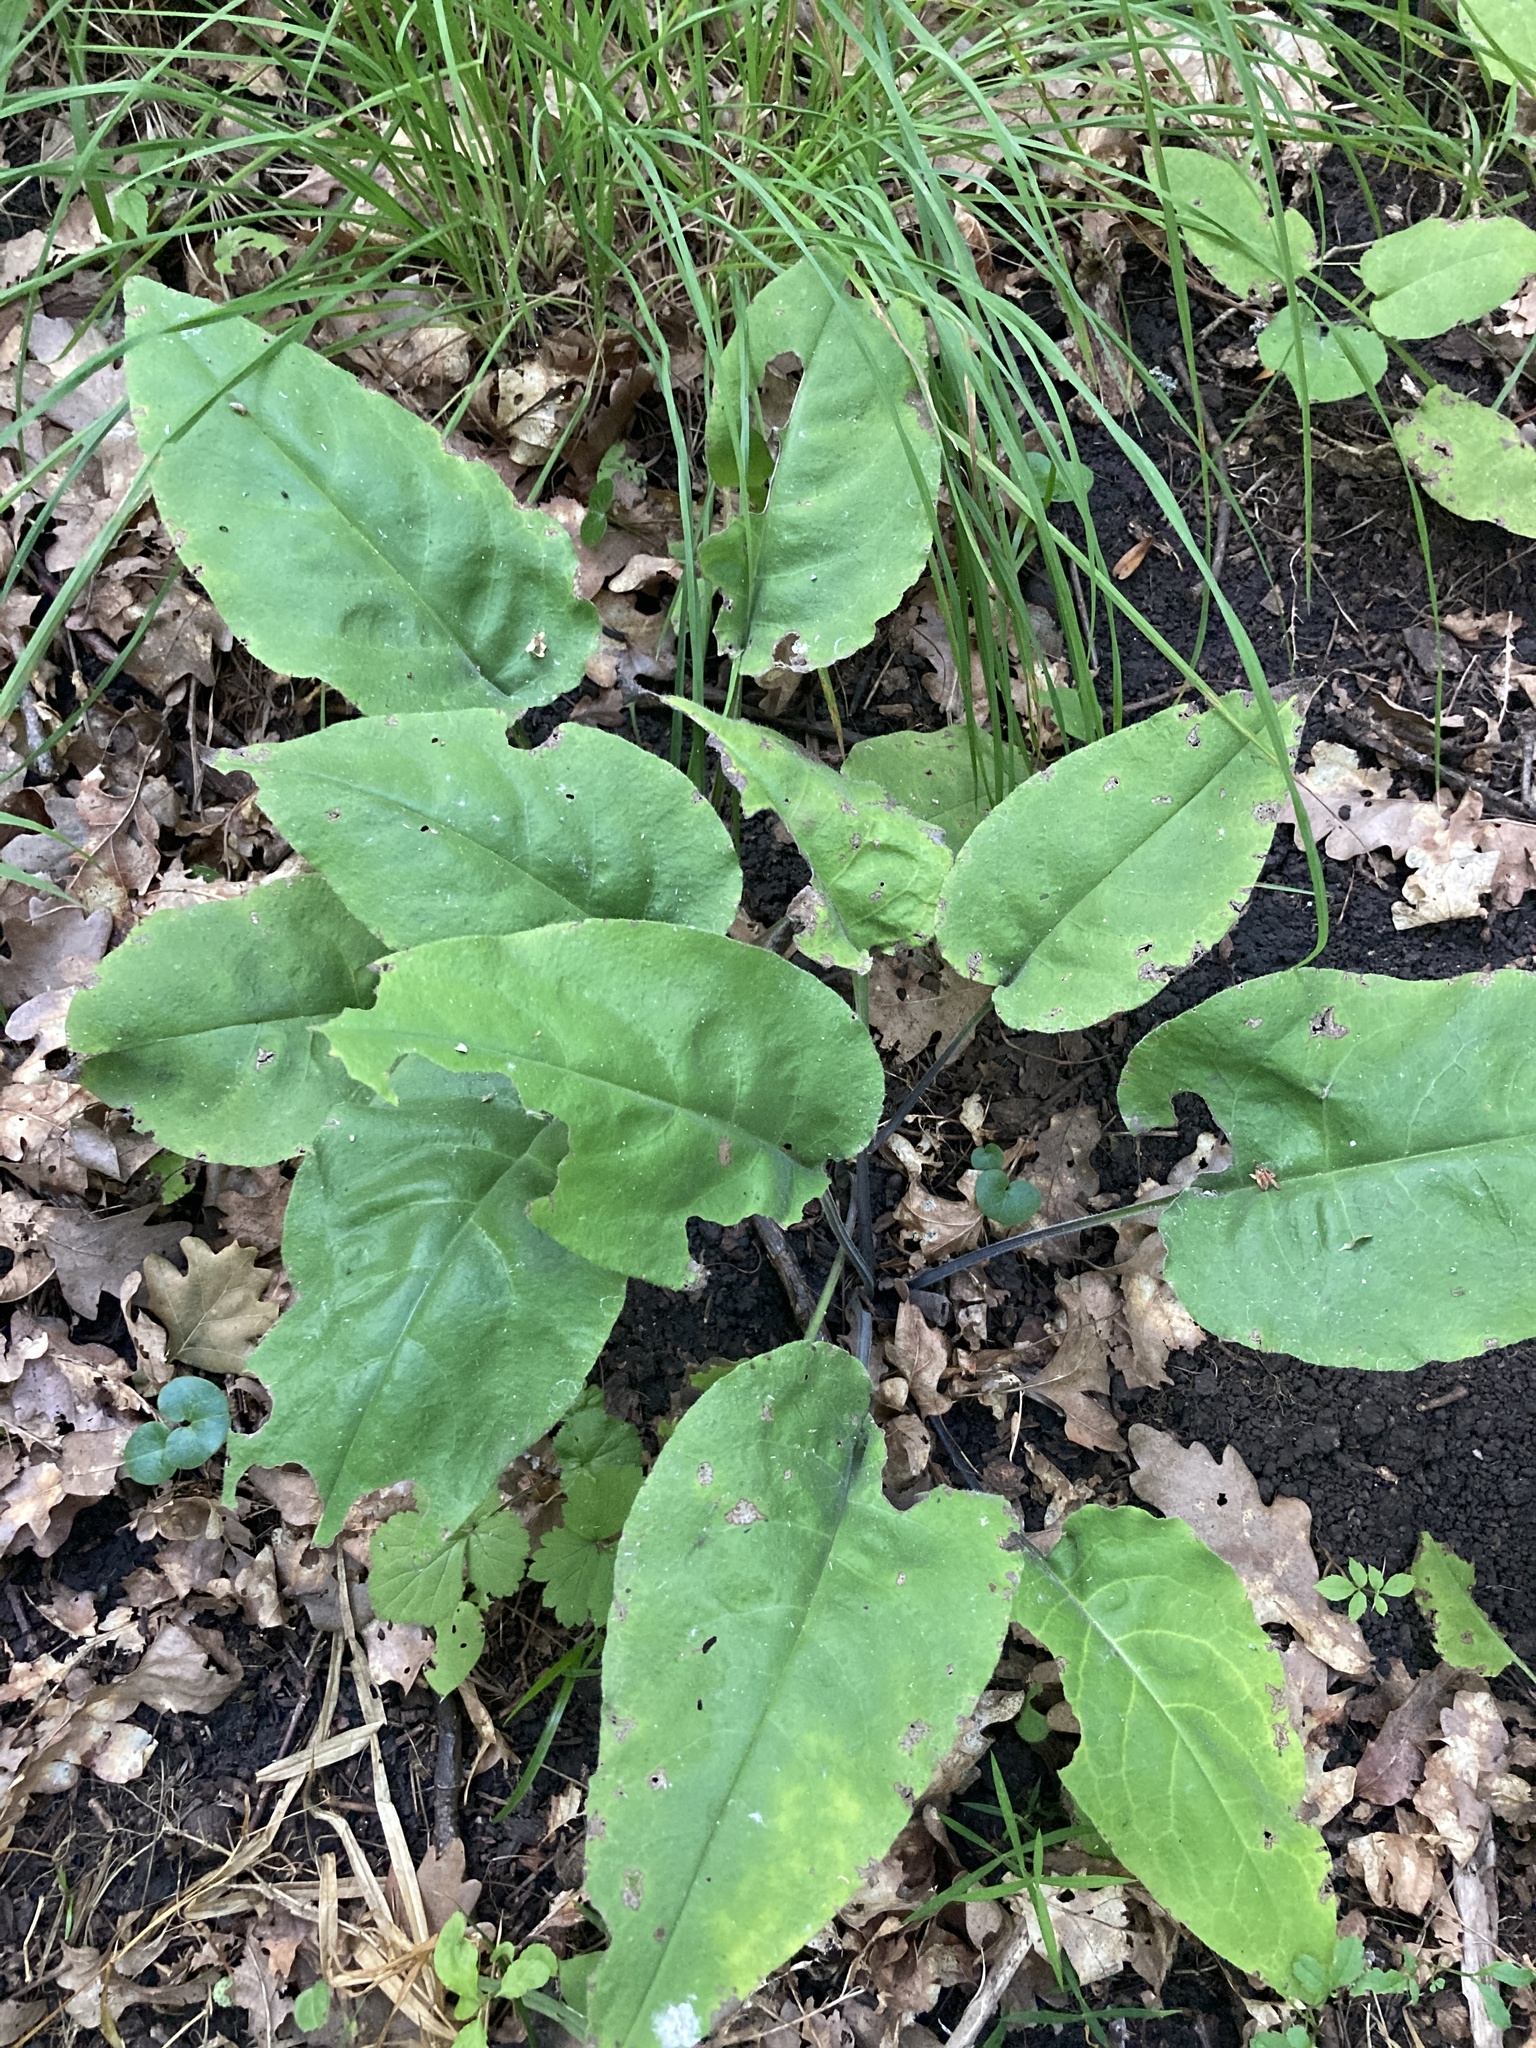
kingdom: Plantae
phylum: Tracheophyta
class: Magnoliopsida
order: Boraginales
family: Boraginaceae
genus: Pulmonaria
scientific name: Pulmonaria obscura
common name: Suffolk lungwort
